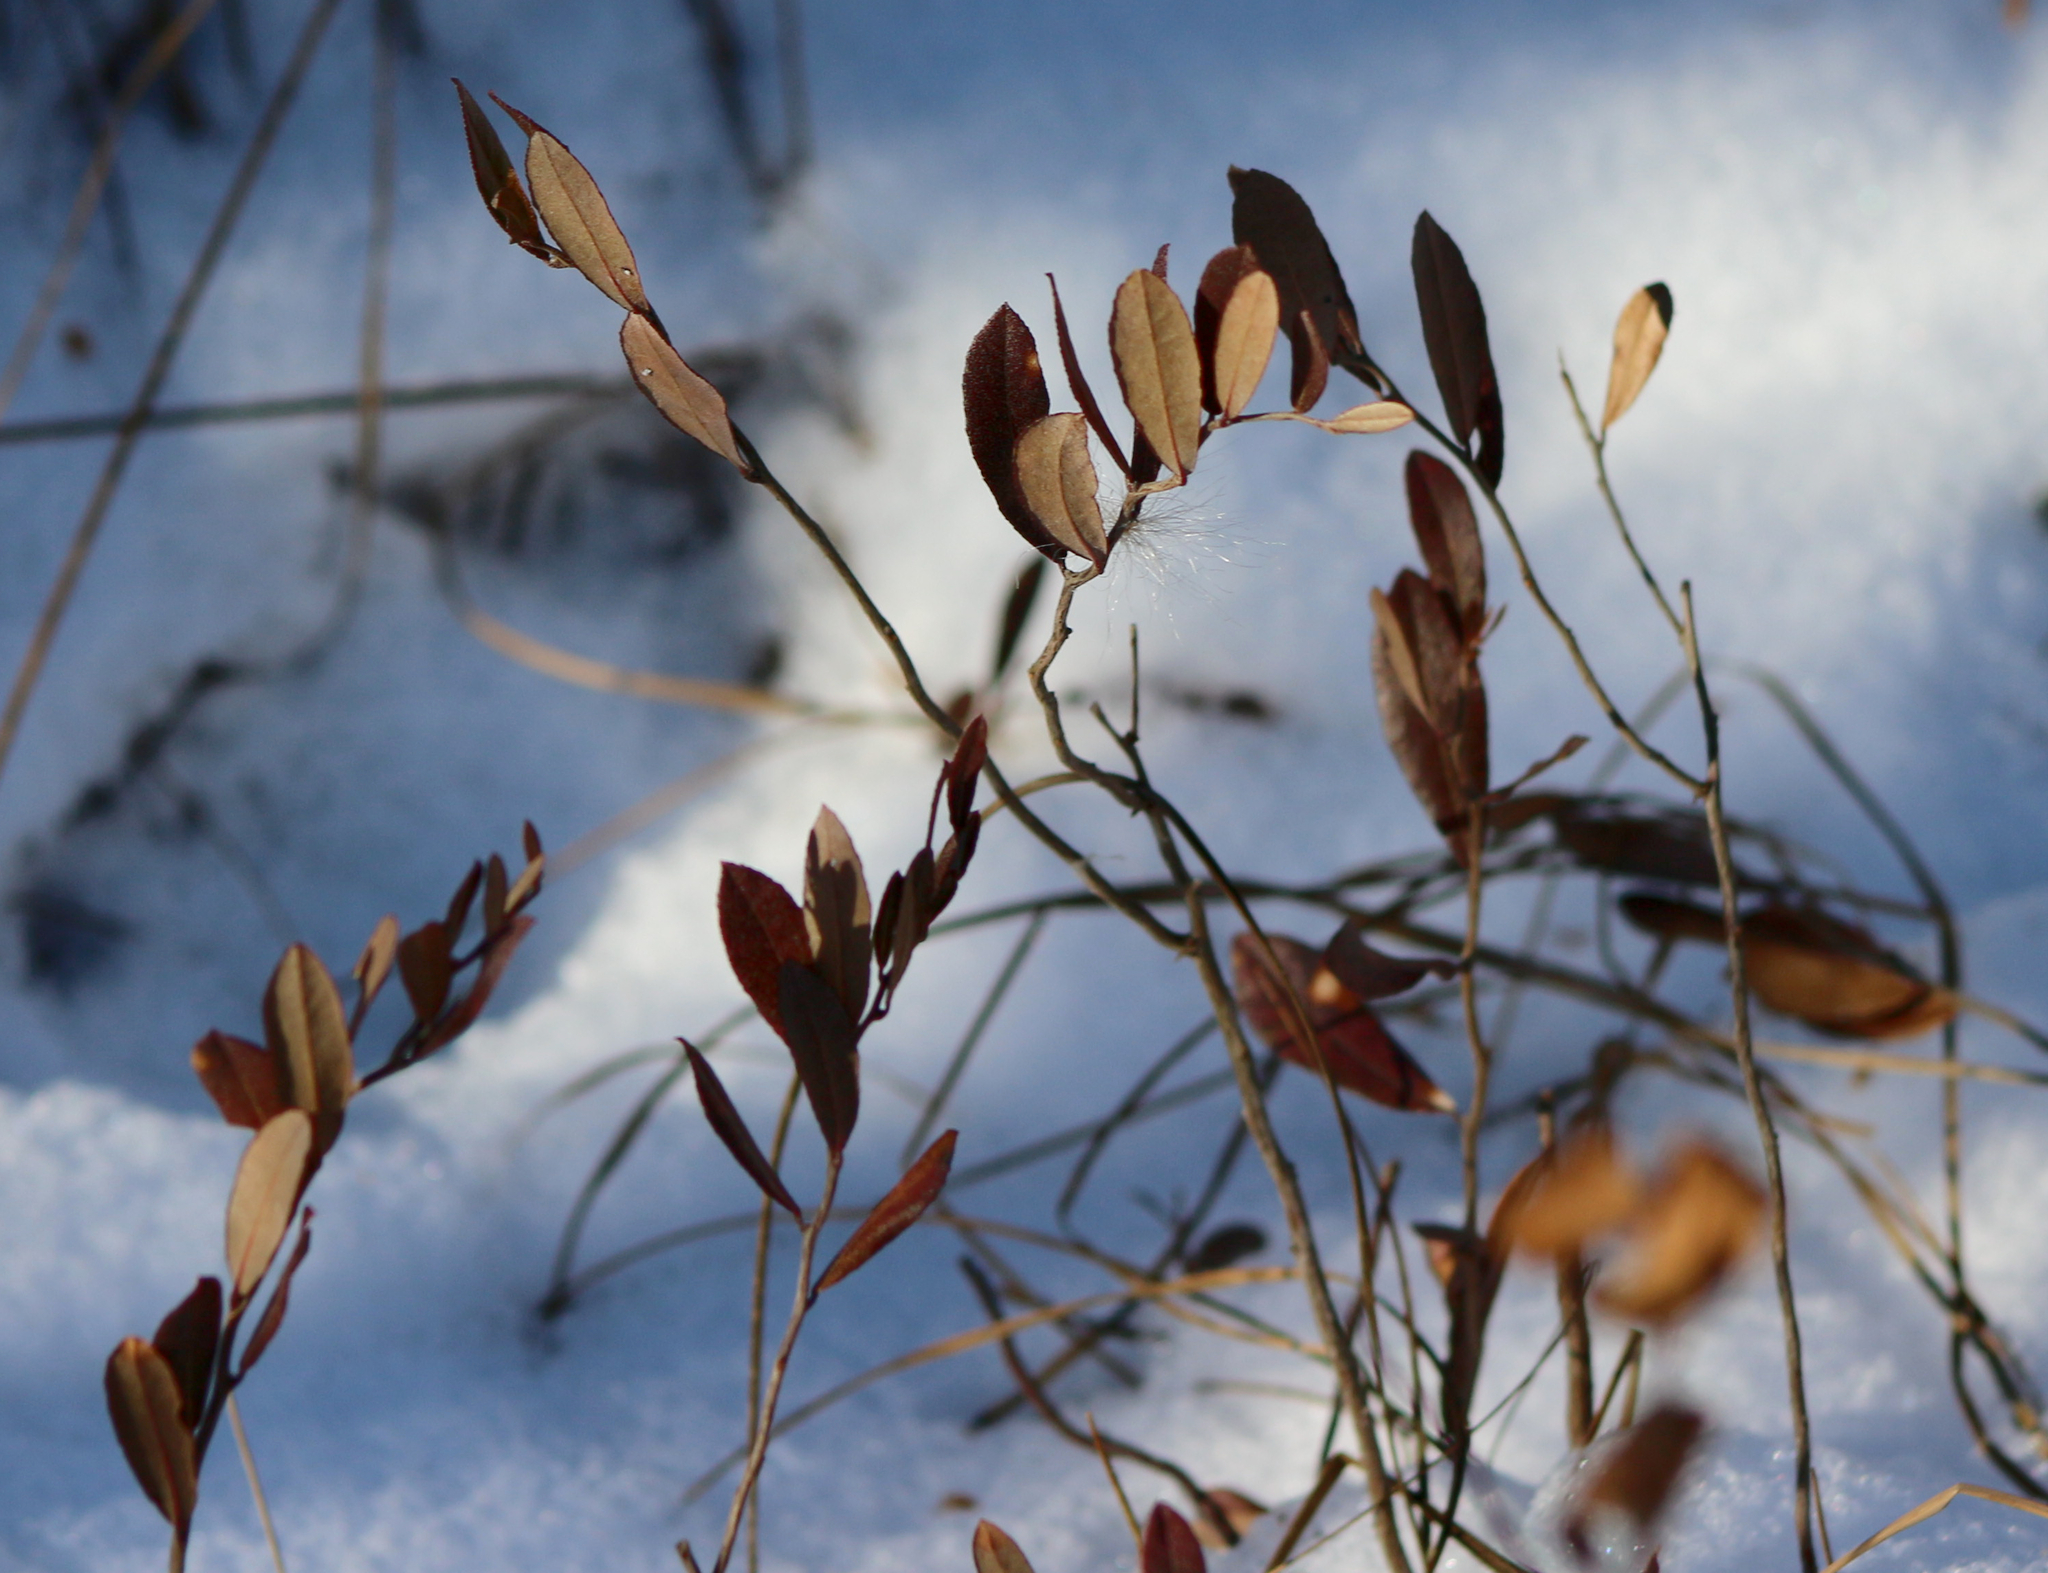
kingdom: Plantae
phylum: Tracheophyta
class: Magnoliopsida
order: Ericales
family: Ericaceae
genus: Chamaedaphne
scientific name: Chamaedaphne calyculata
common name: Leatherleaf
